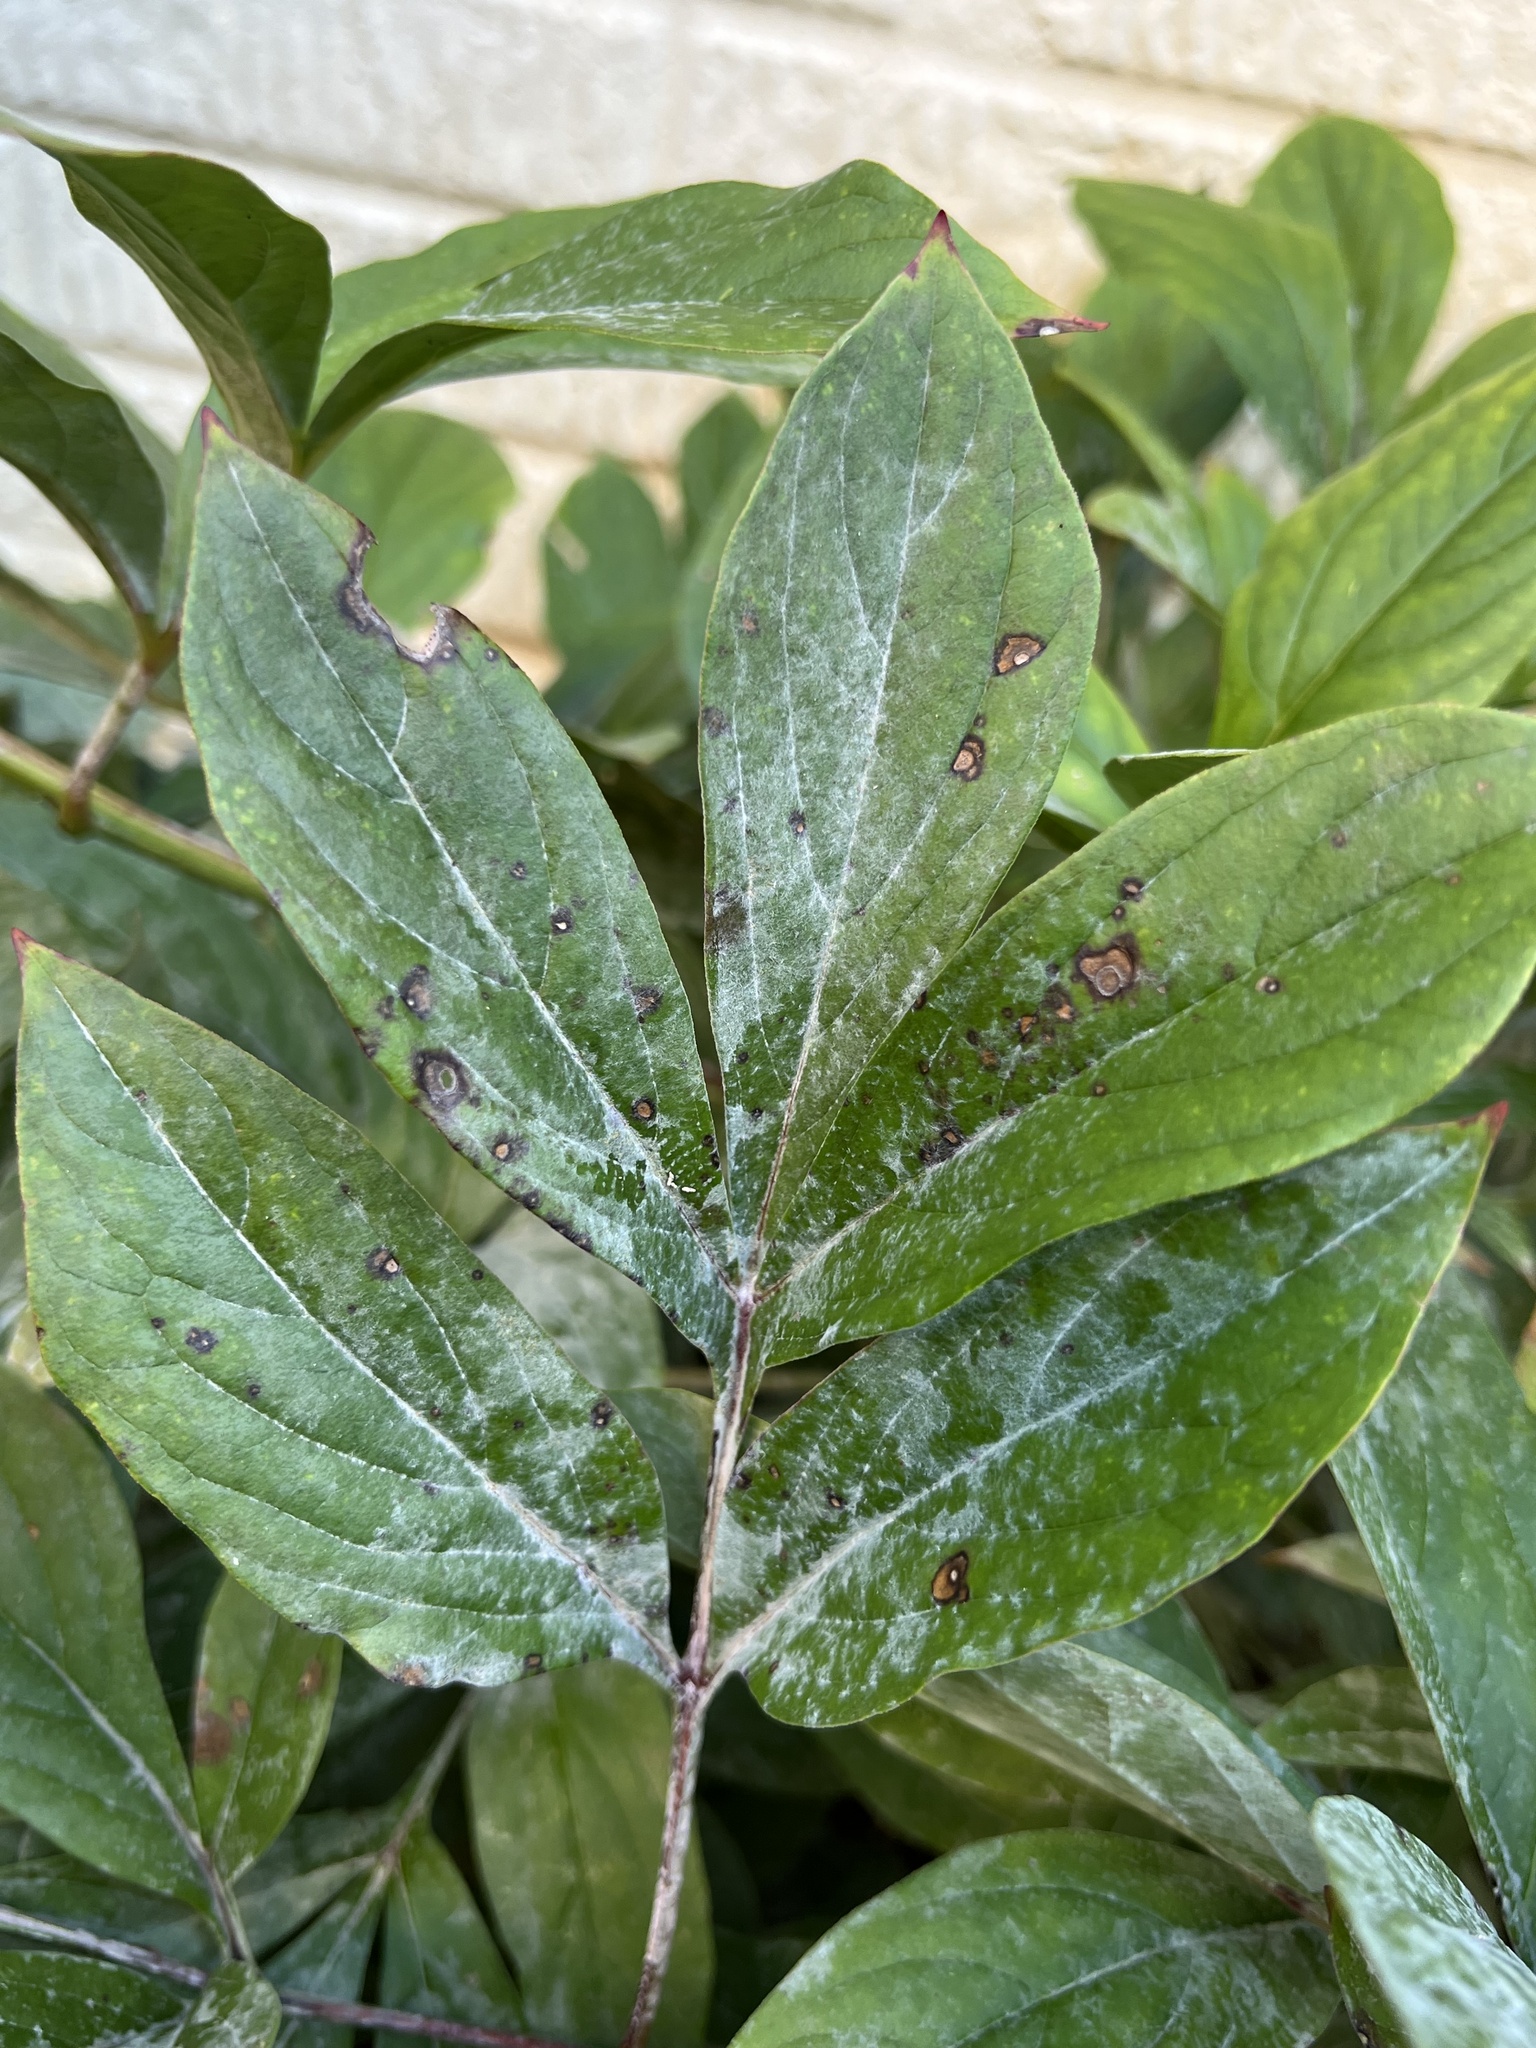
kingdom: Fungi
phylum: Ascomycota
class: Leotiomycetes
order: Helotiales
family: Erysiphaceae
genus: Erysiphe
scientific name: Erysiphe paeoniae
